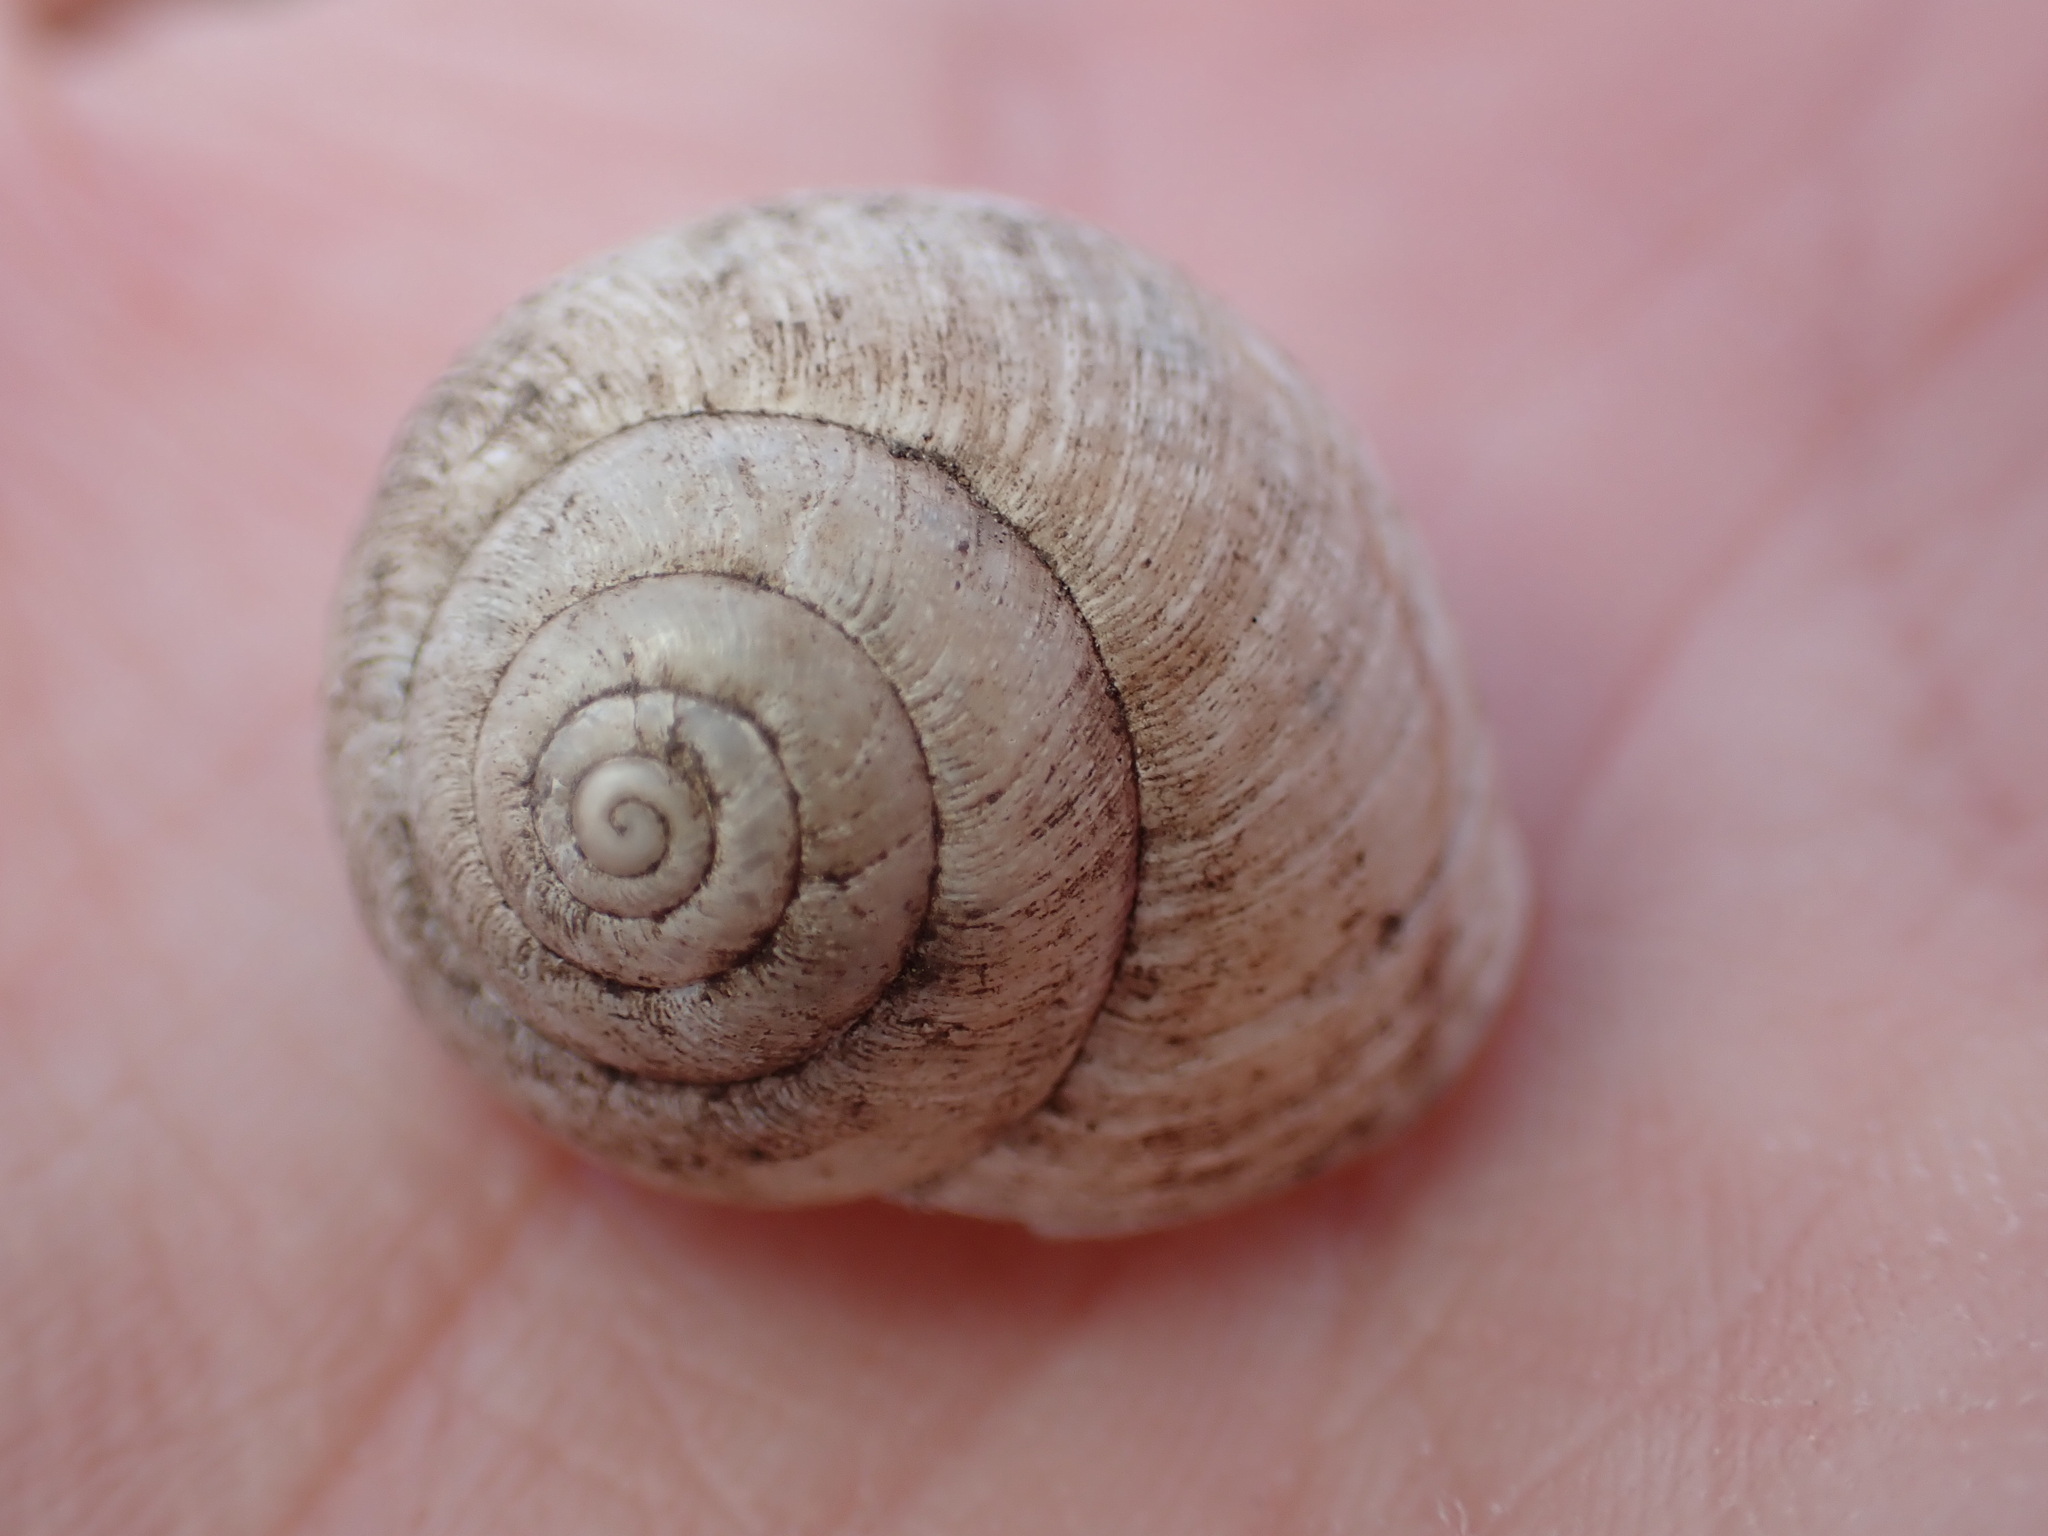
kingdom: Animalia
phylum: Mollusca
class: Gastropoda
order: Stylommatophora
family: Xanthonychidae
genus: Helminthoglypta
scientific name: Helminthoglypta nickliniana
